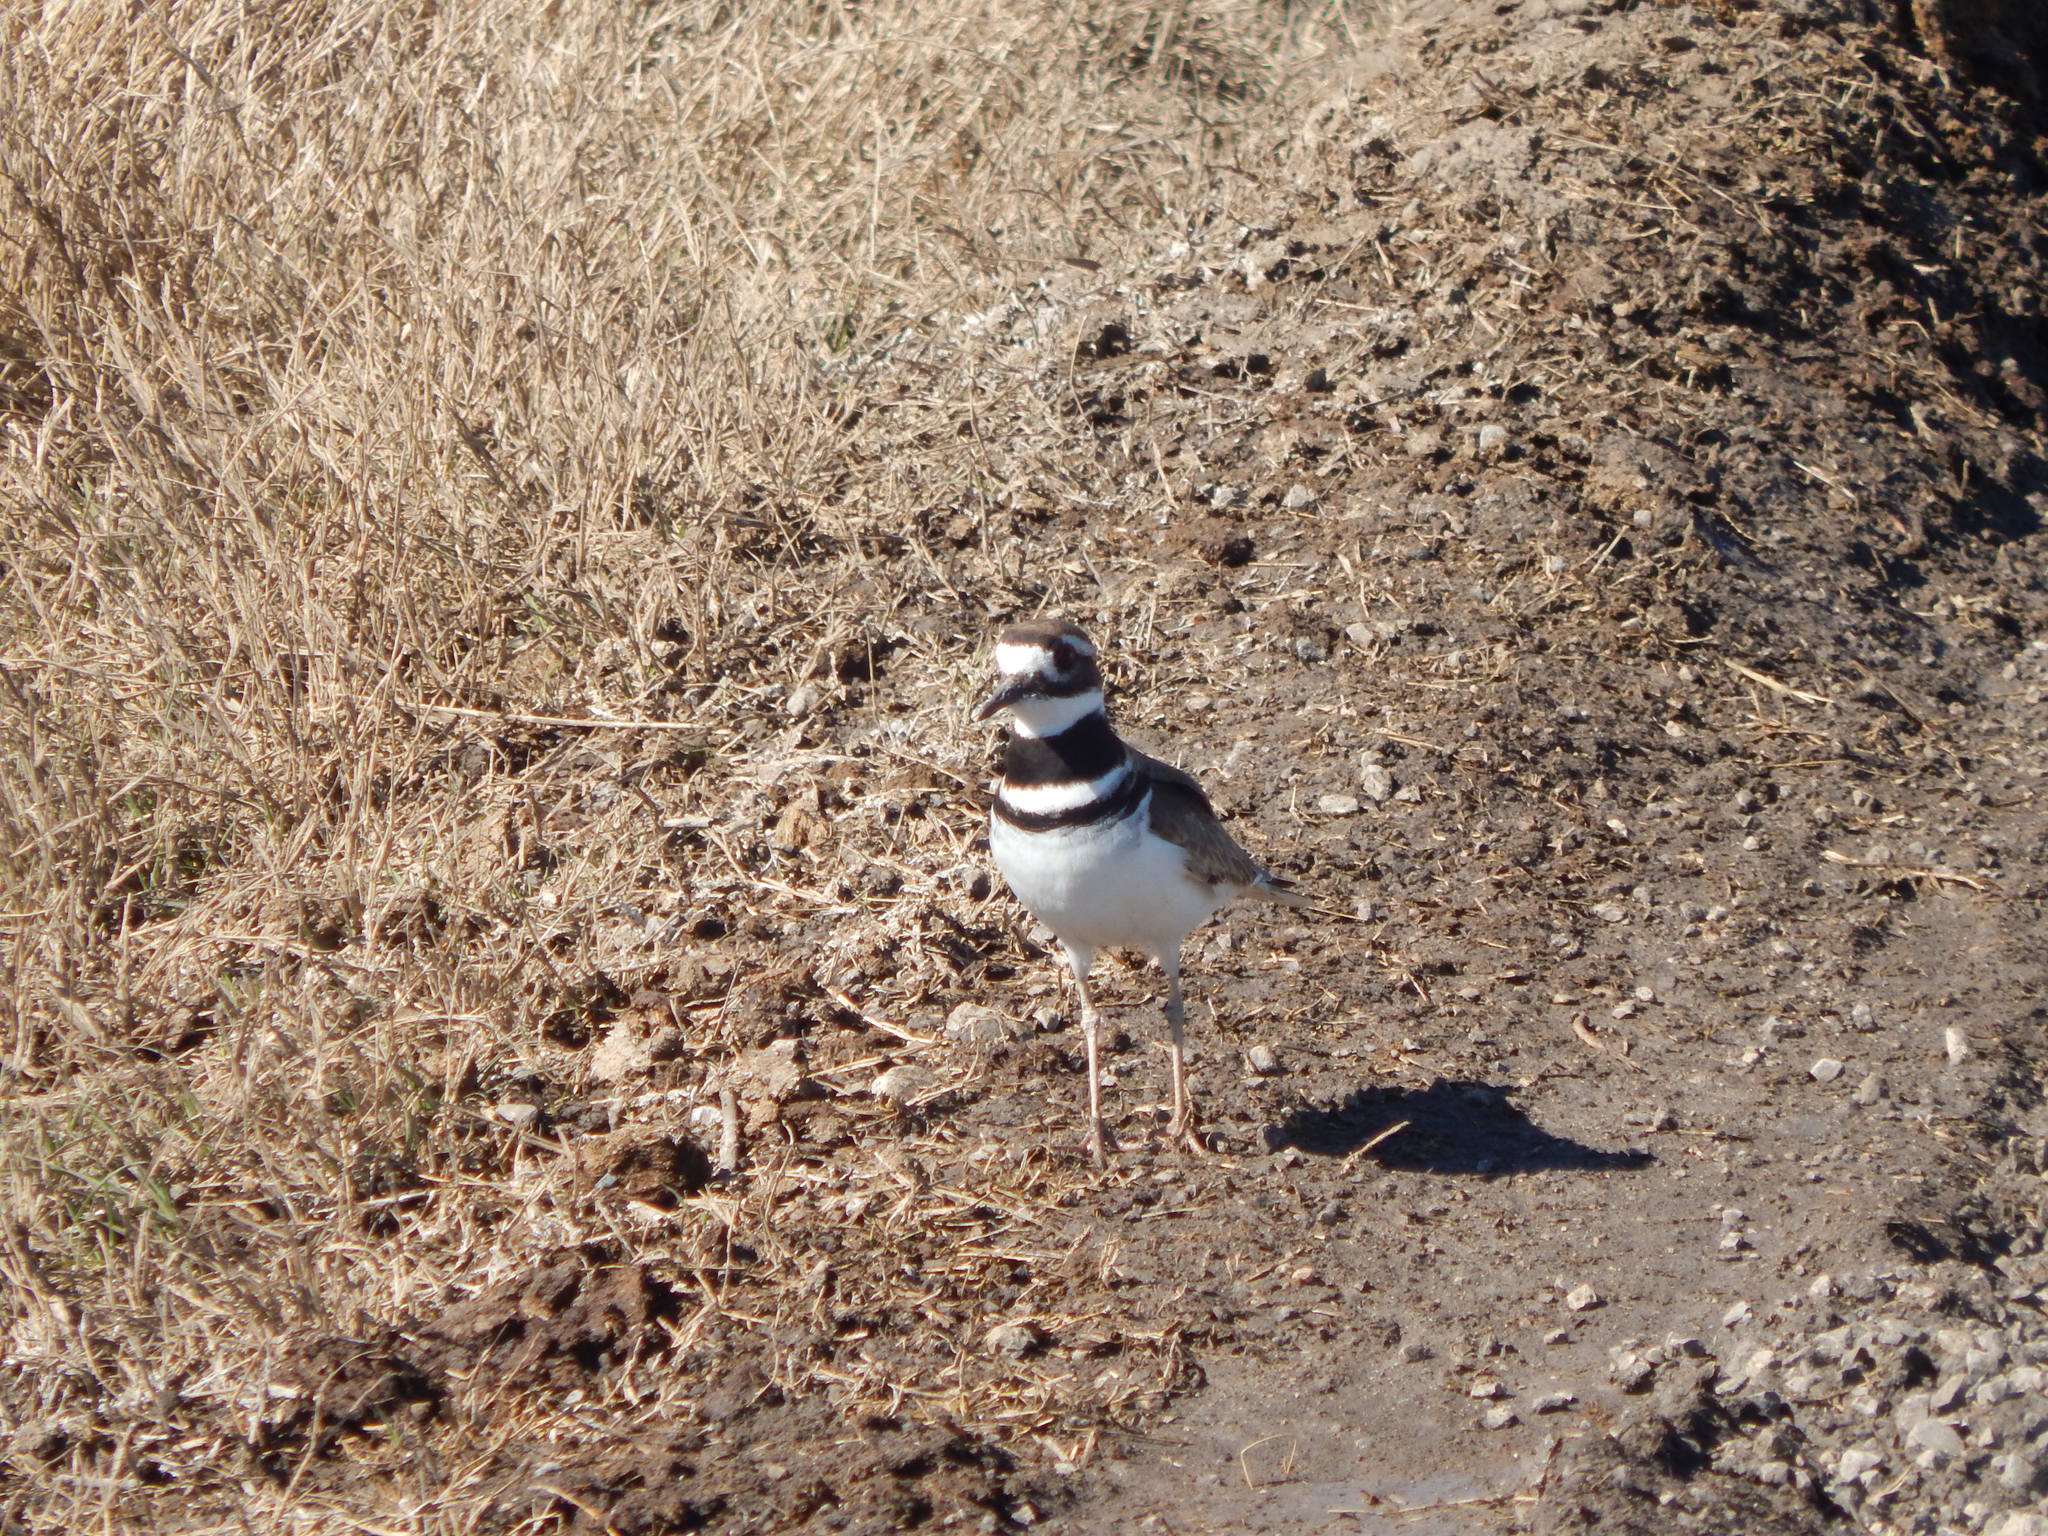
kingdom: Animalia
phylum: Chordata
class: Aves
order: Charadriiformes
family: Charadriidae
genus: Charadrius
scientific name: Charadrius vociferus
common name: Killdeer
